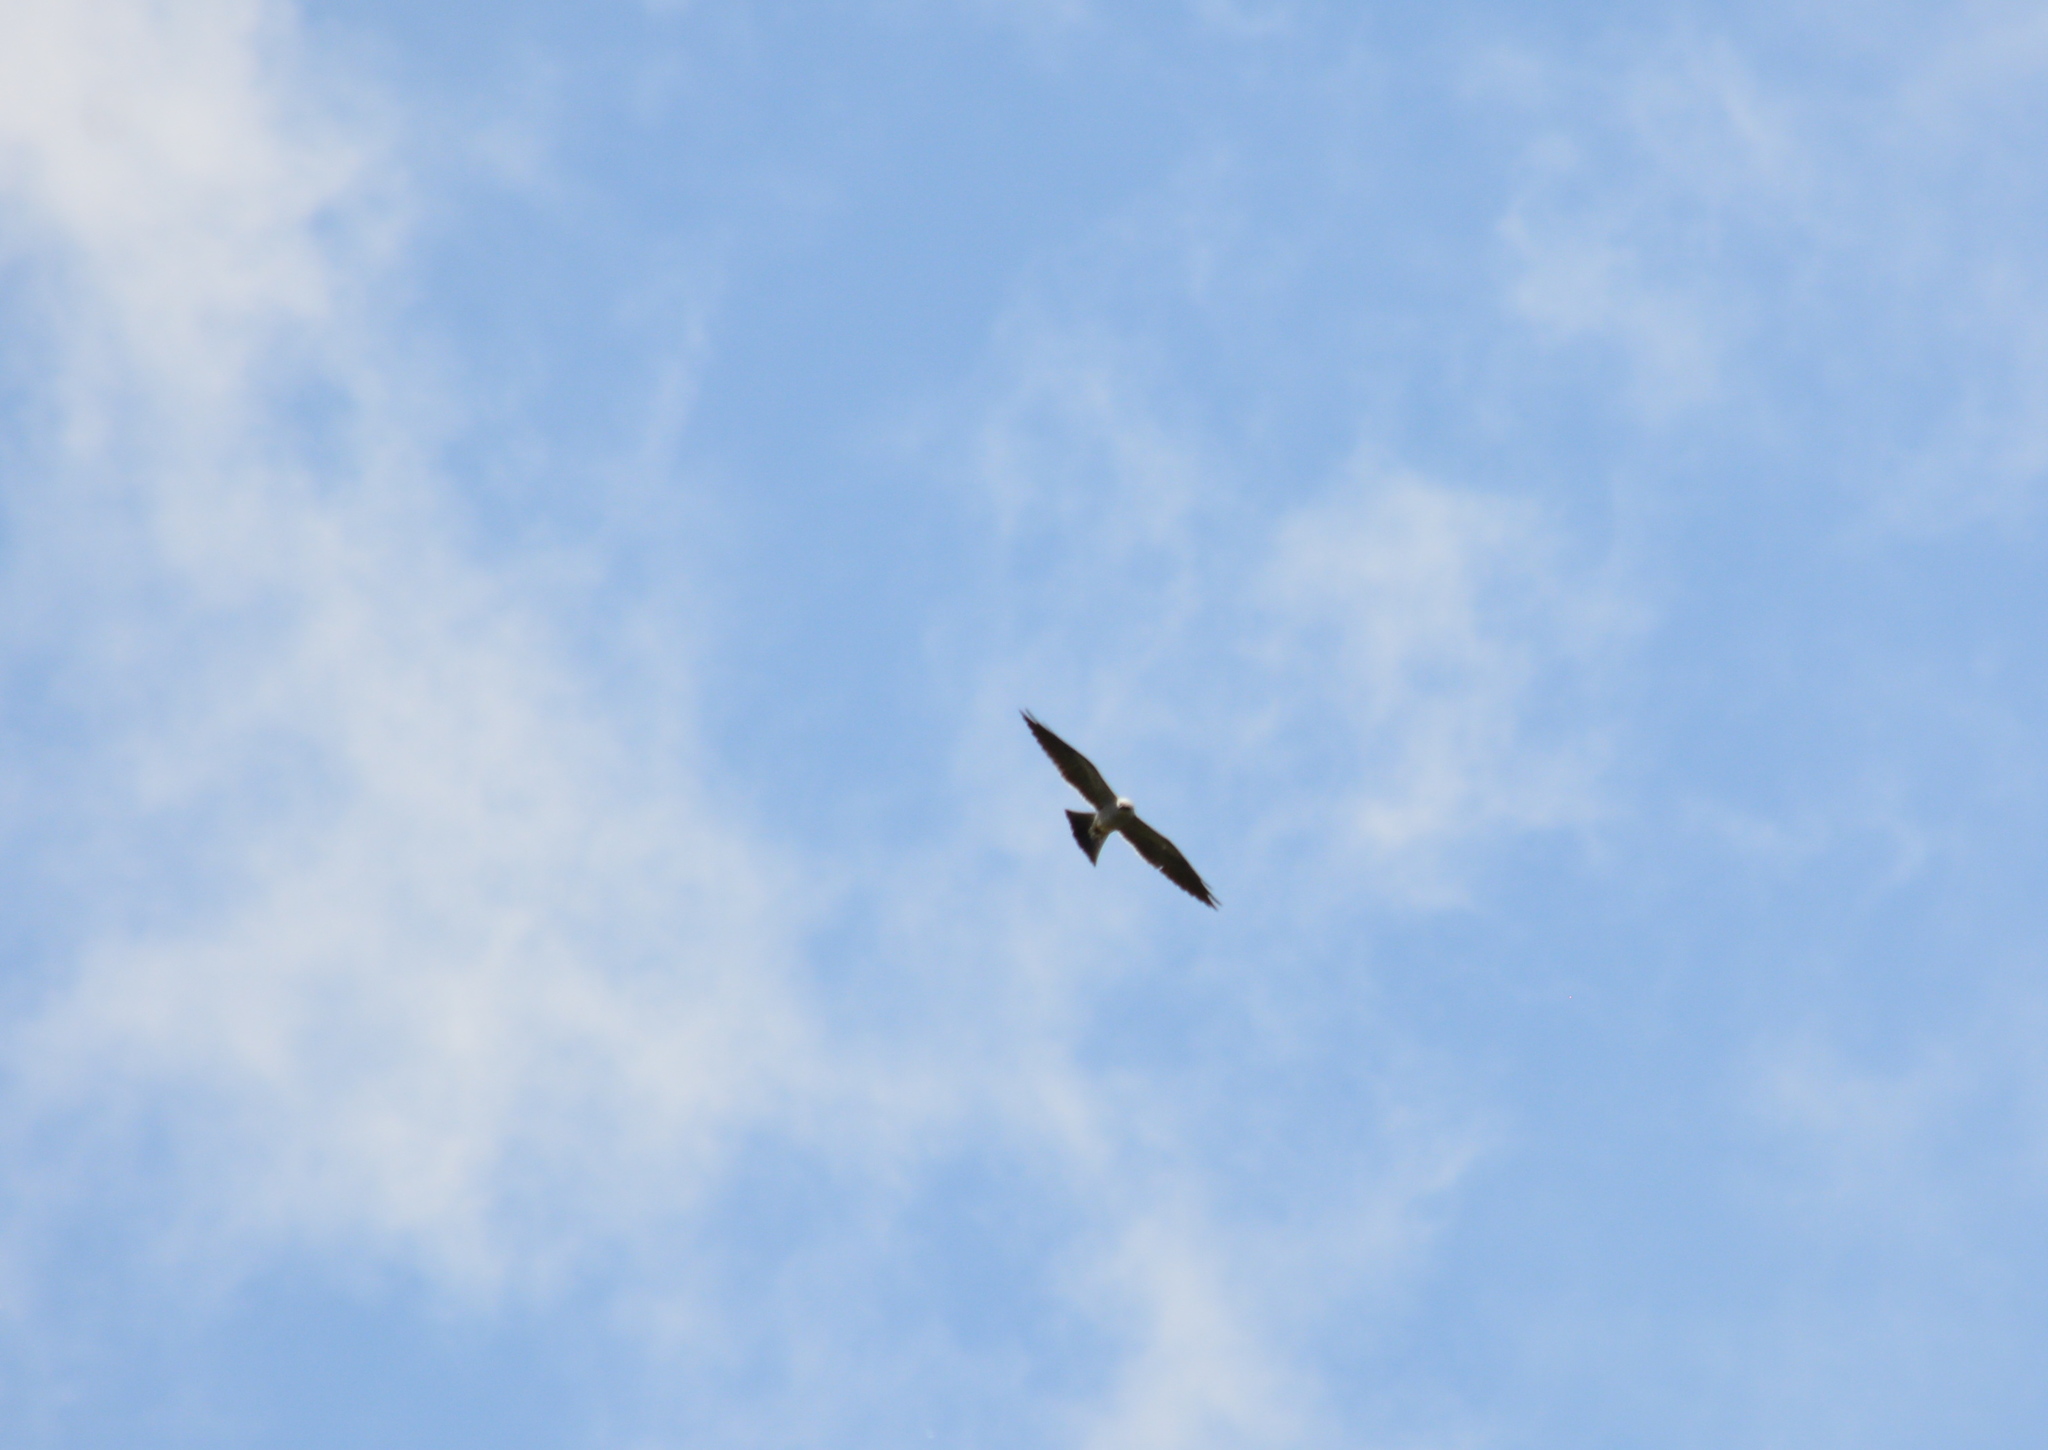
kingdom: Animalia
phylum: Chordata
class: Aves
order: Accipitriformes
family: Accipitridae
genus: Ictinia
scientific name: Ictinia mississippiensis
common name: Mississippi kite
